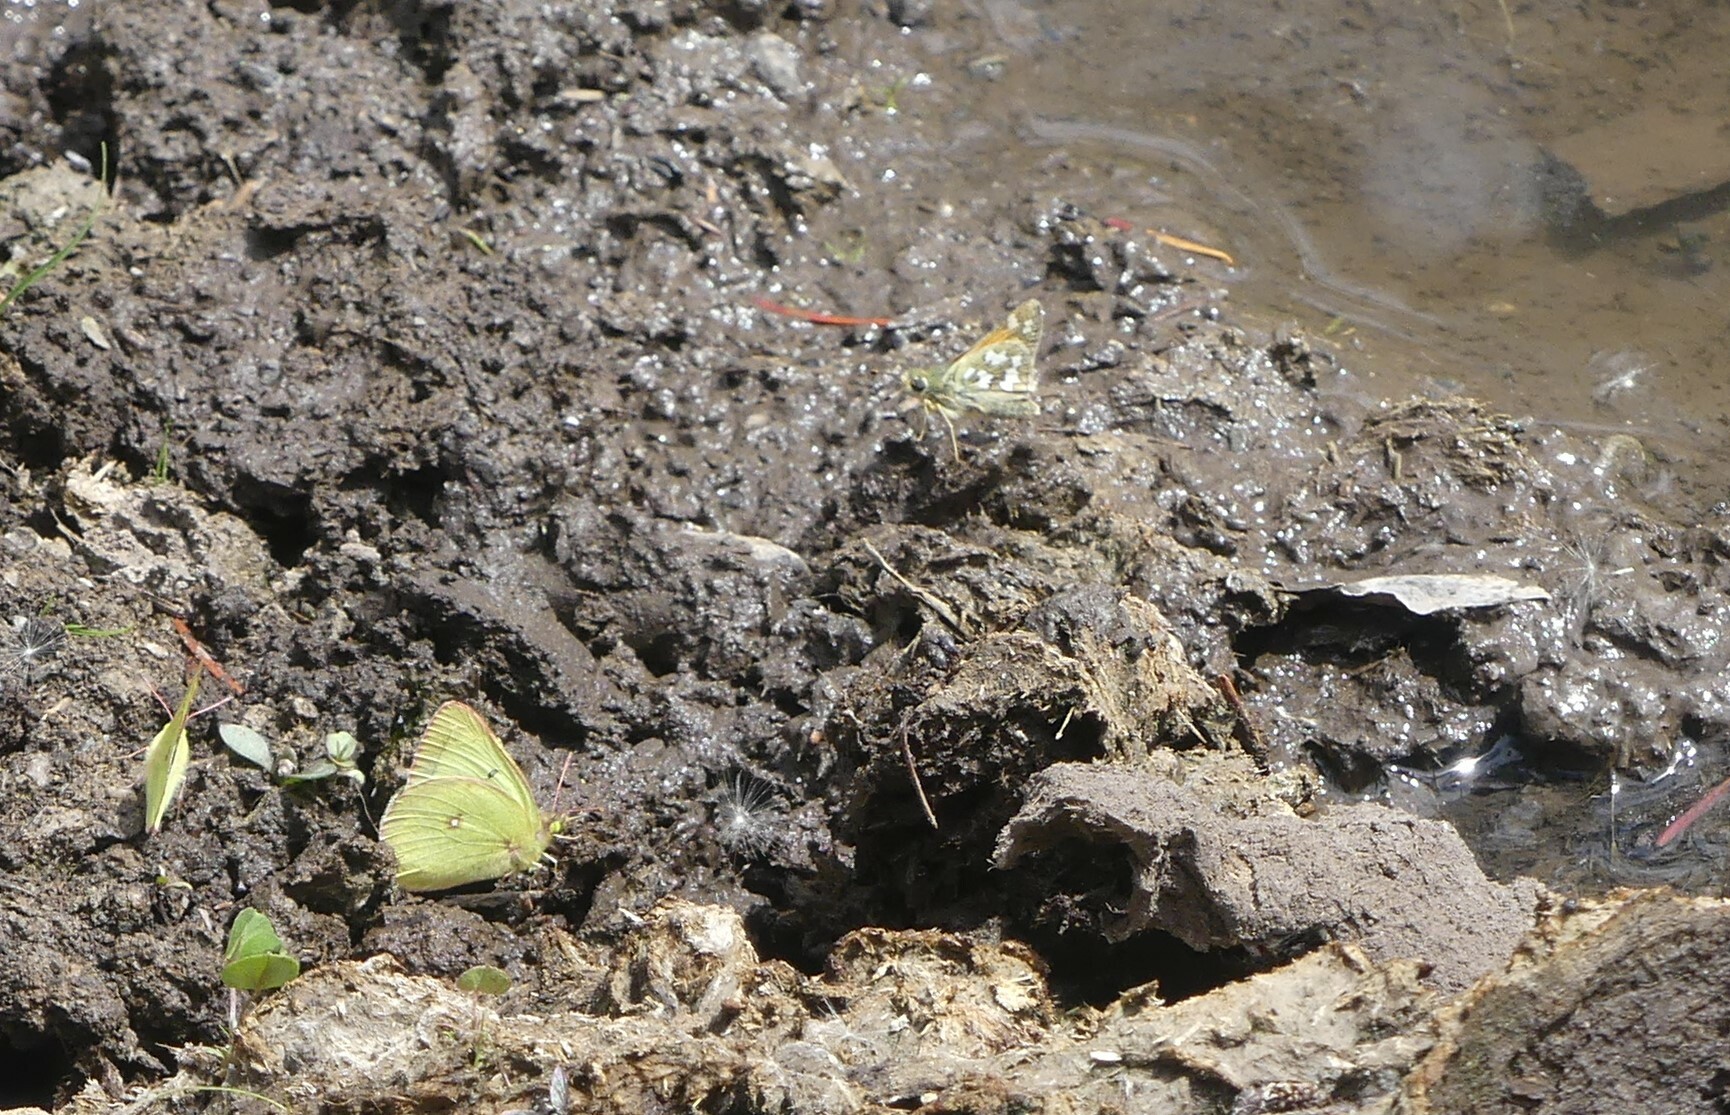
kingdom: Animalia
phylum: Arthropoda
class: Insecta
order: Lepidoptera
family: Pieridae
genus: Colias
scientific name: Colias philodice
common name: Clouded sulphur
